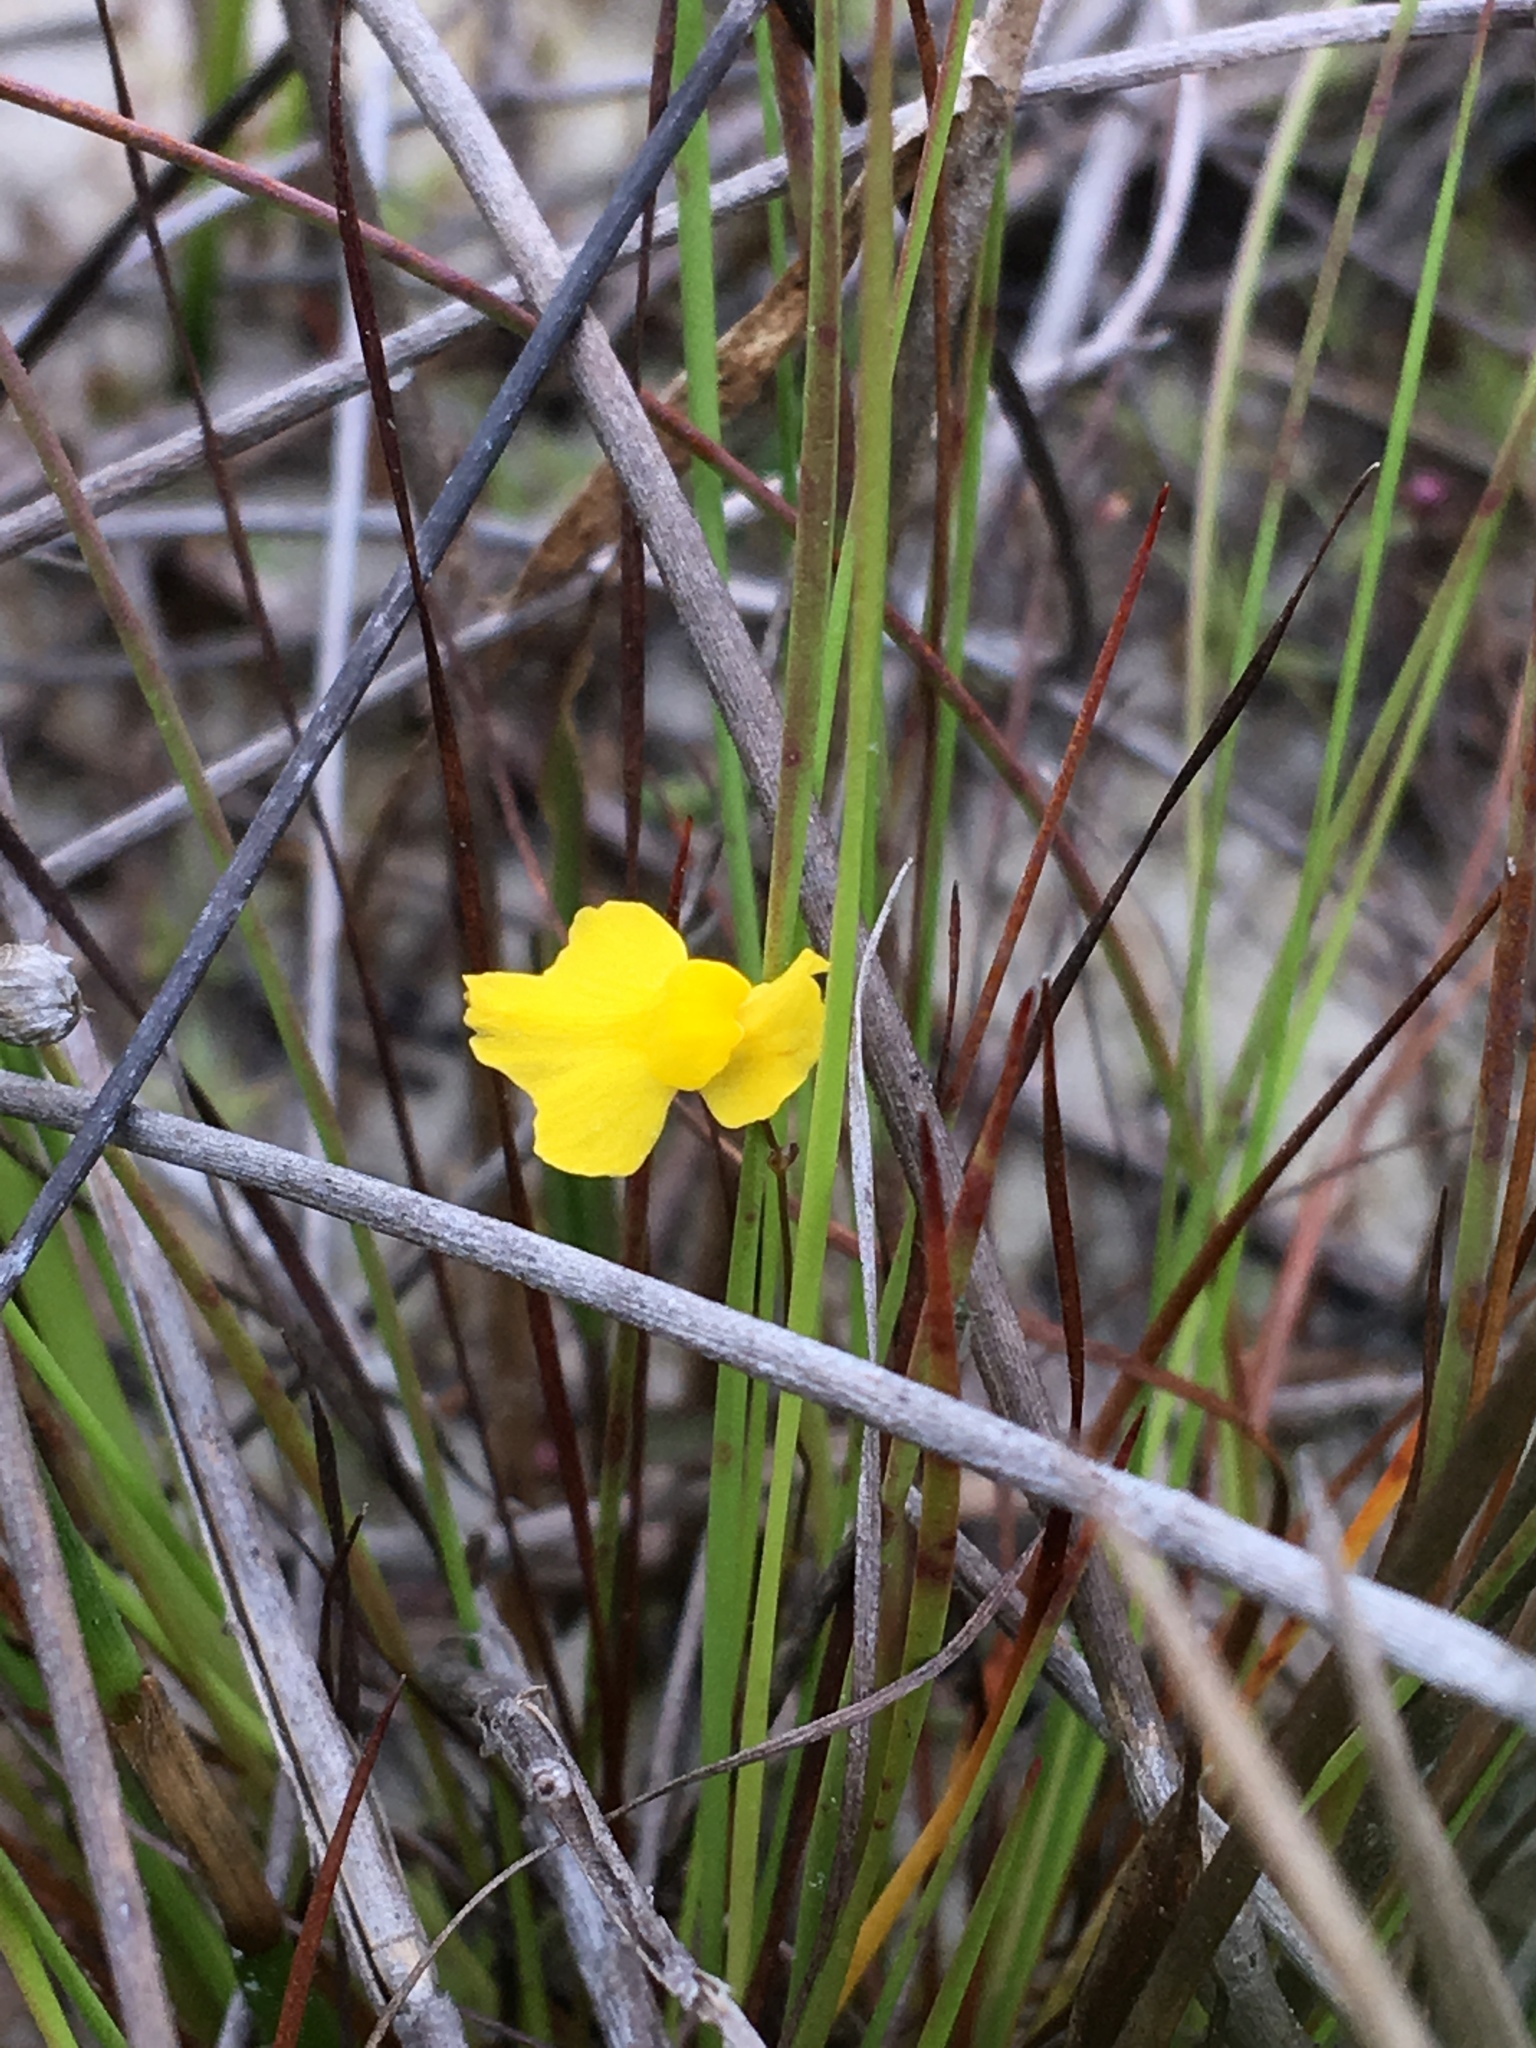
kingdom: Plantae
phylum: Tracheophyta
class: Magnoliopsida
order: Lamiales
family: Lentibulariaceae
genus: Utricularia
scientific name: Utricularia subulata
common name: Tiny bladderwort
